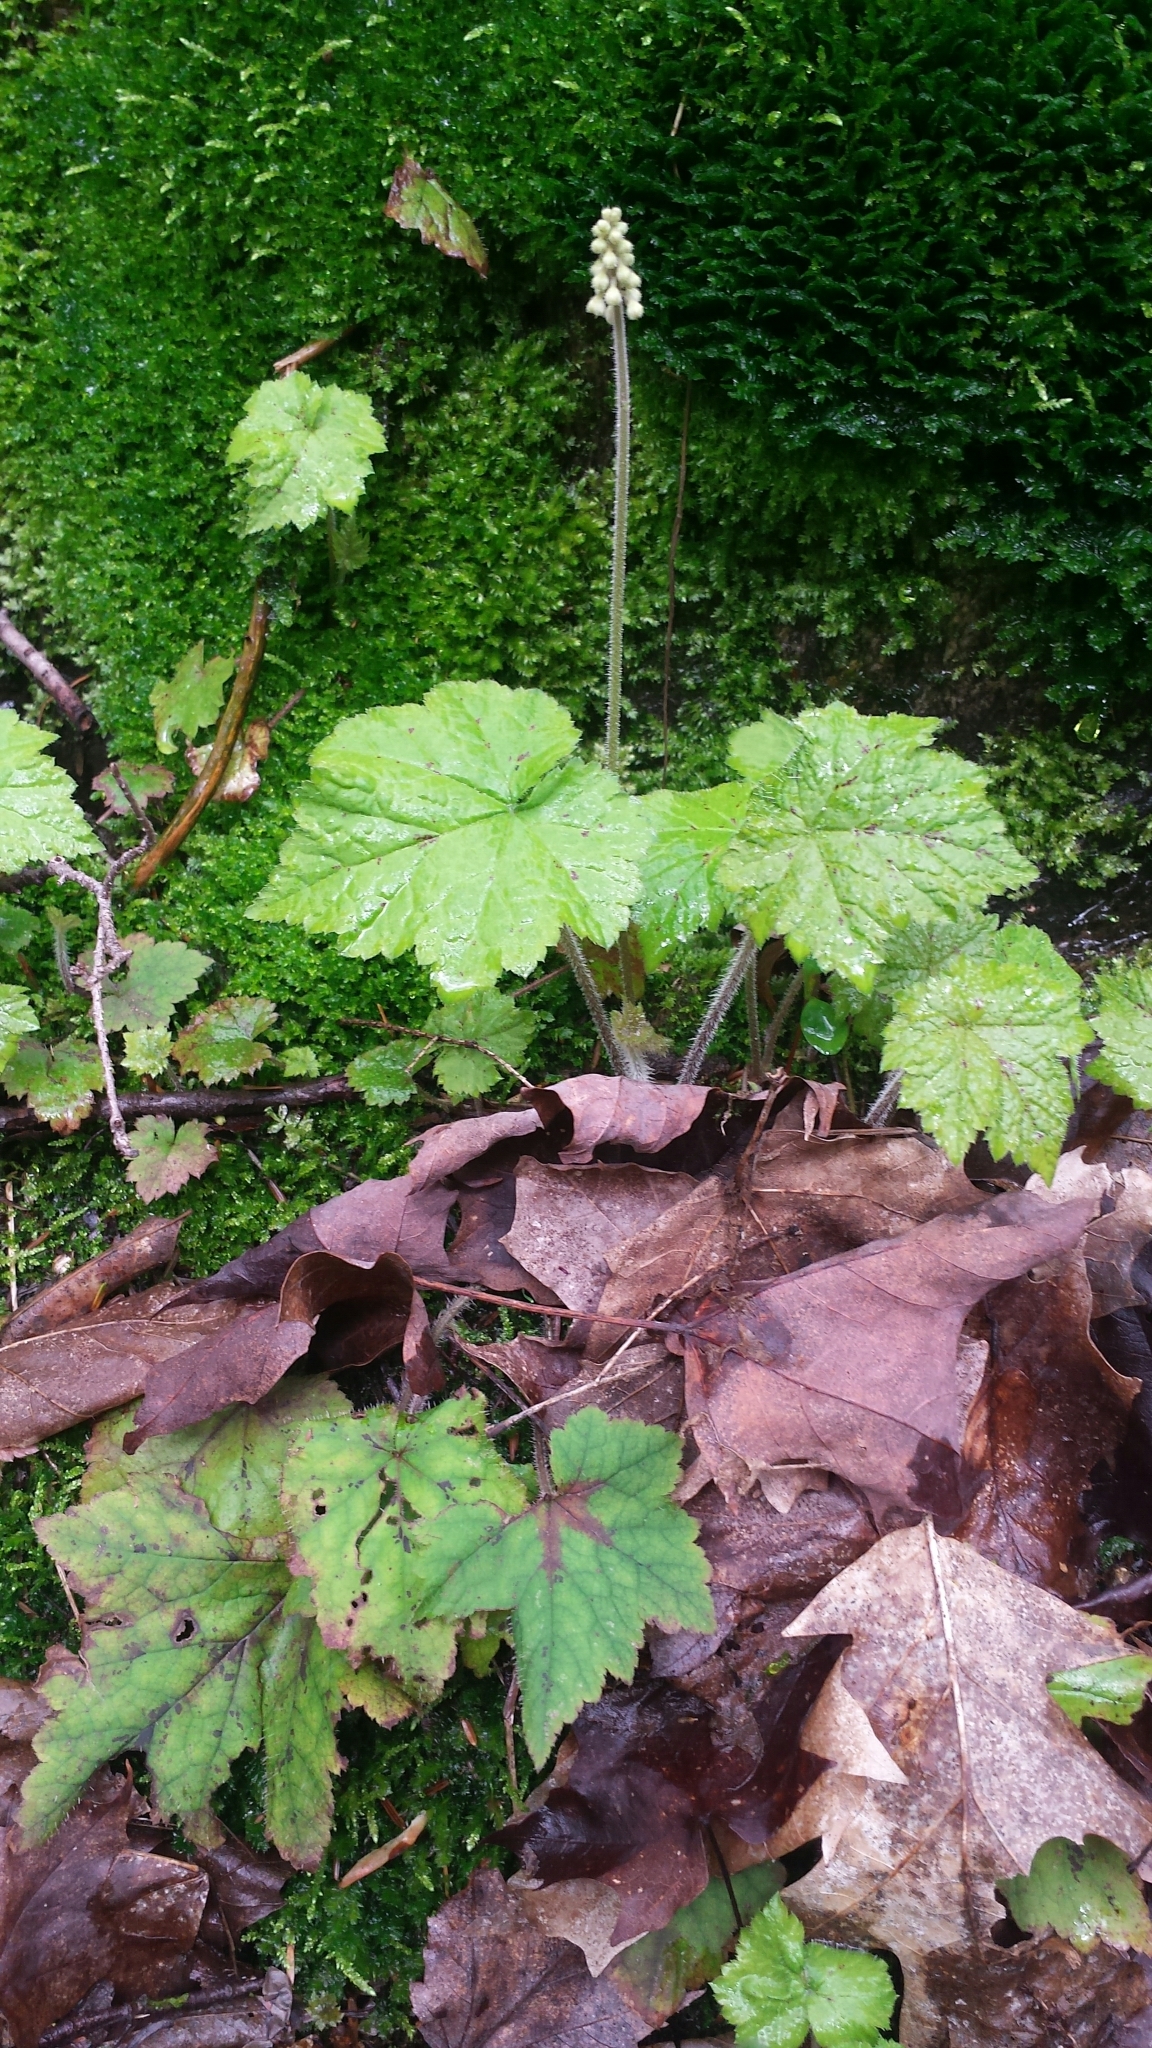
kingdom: Plantae
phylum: Tracheophyta
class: Magnoliopsida
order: Saxifragales
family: Saxifragaceae
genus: Tiarella
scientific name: Tiarella stolonifera
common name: Stoloniferous foamflower
